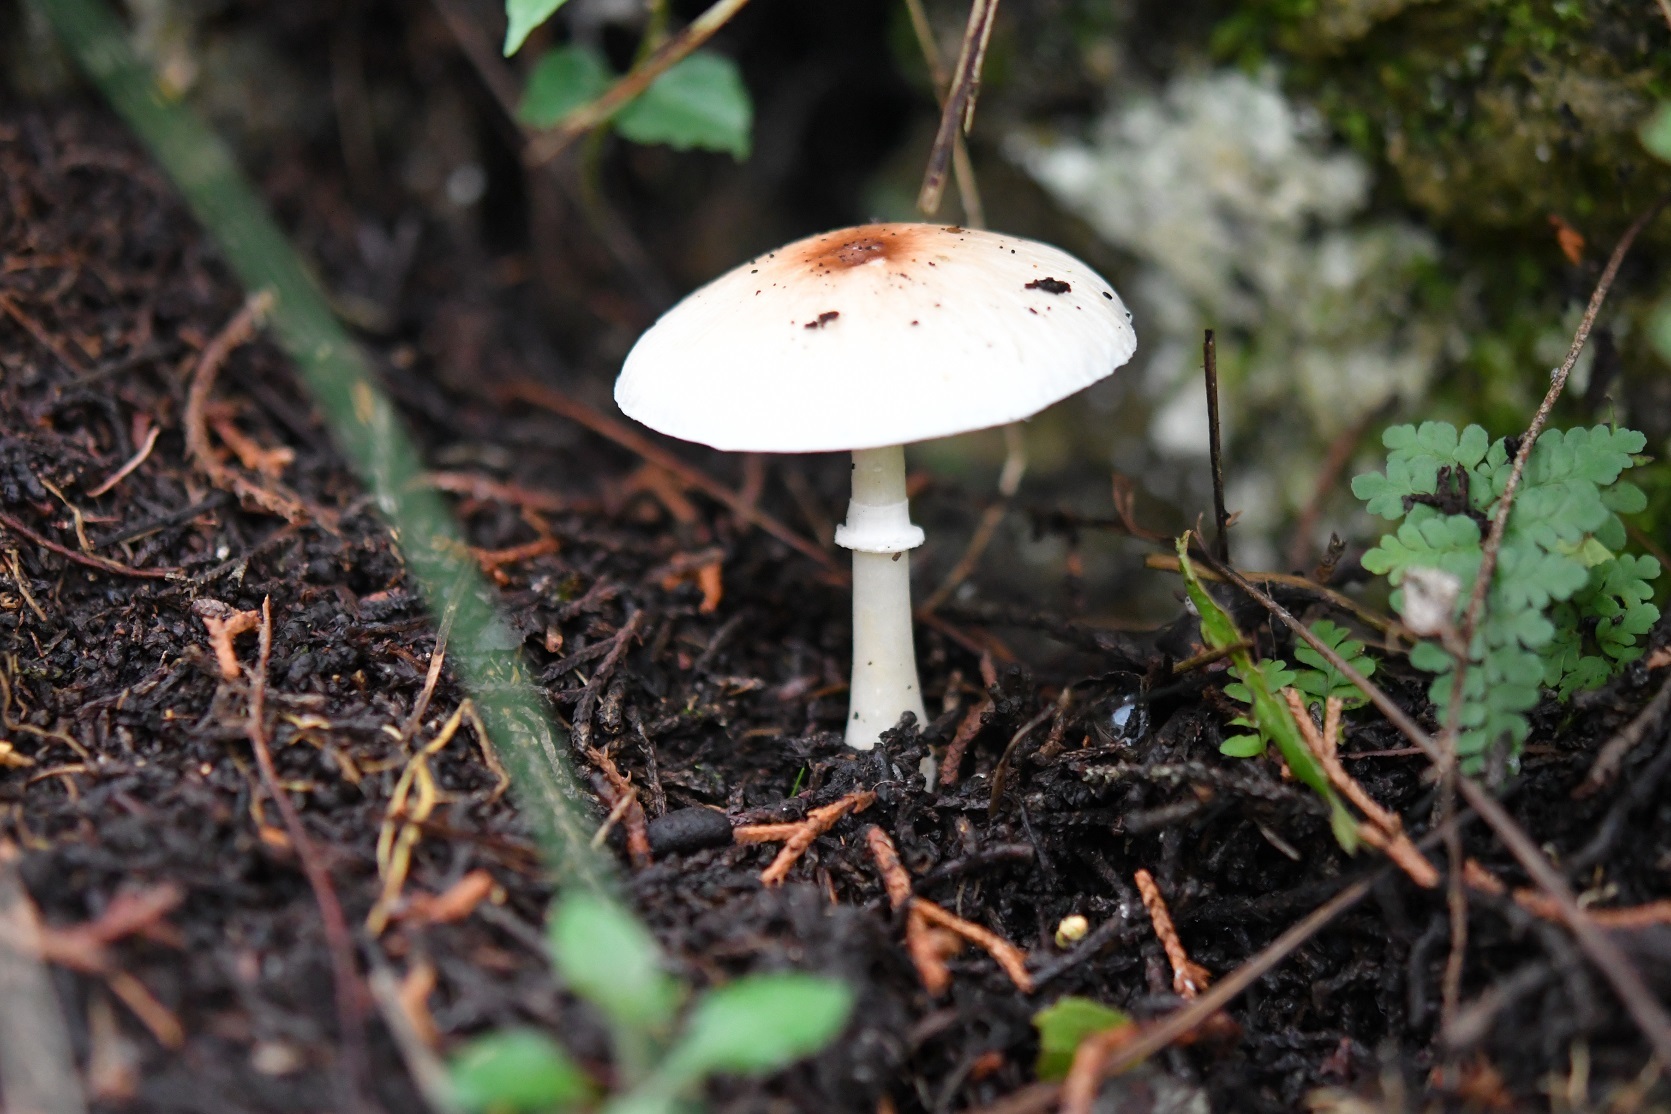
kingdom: Fungi
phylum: Basidiomycota
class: Agaricomycetes
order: Agaricales
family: Agaricaceae
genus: Leucoagaricus
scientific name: Leucoagaricus rubrotinctus
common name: Ruby dapperling
